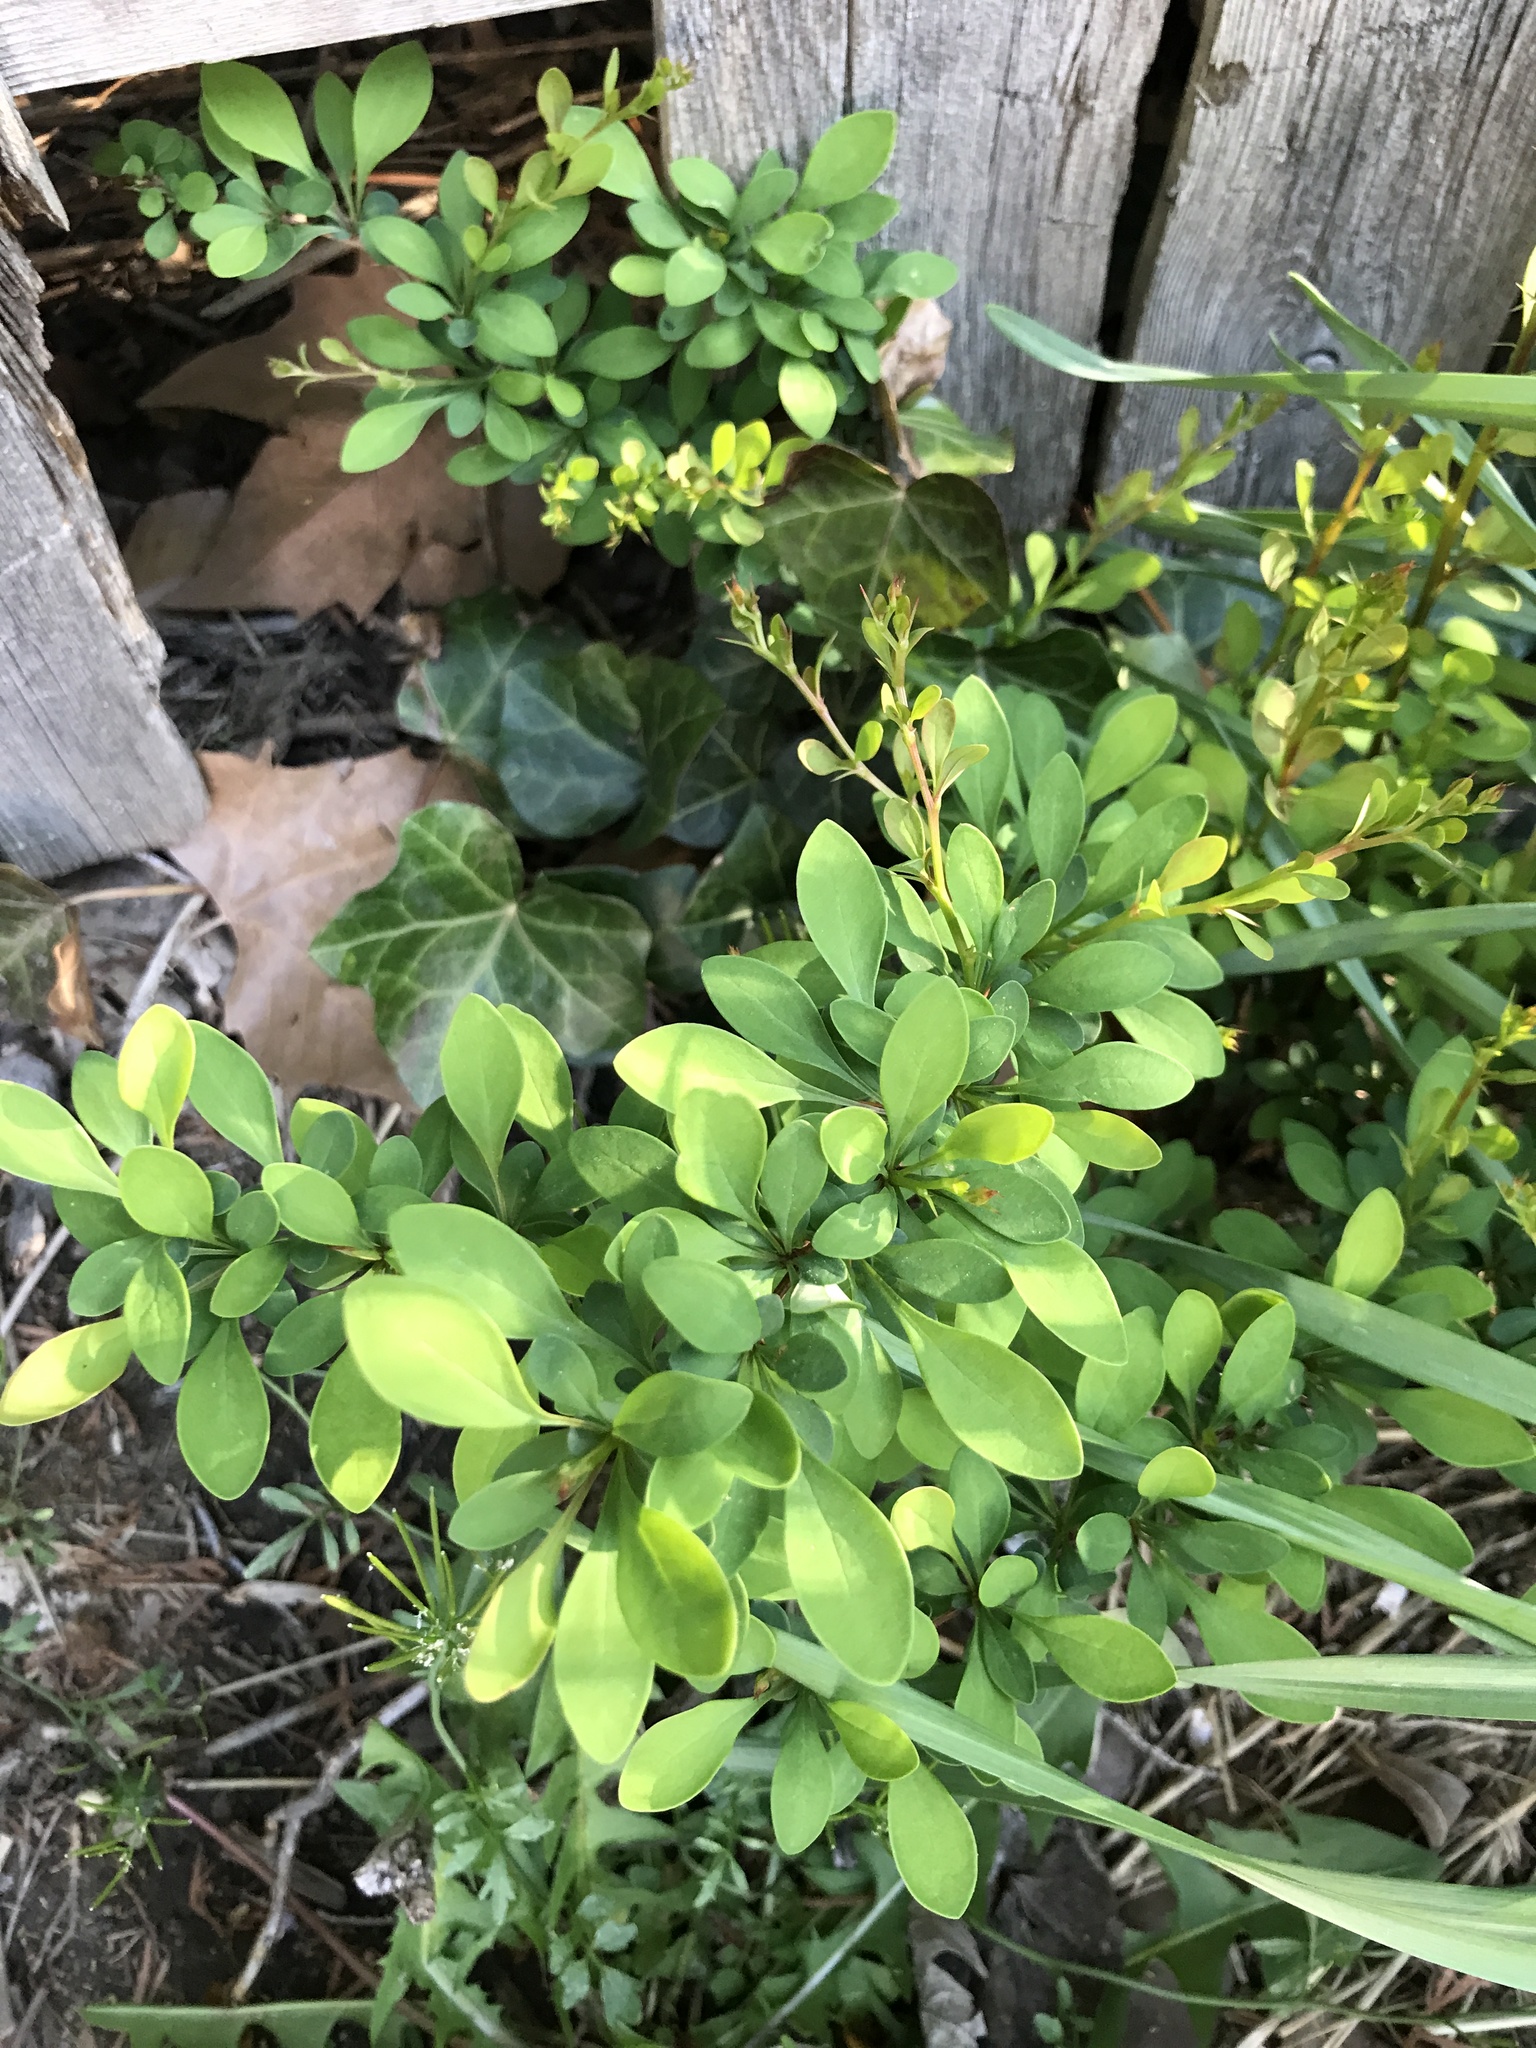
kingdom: Plantae
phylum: Tracheophyta
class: Magnoliopsida
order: Ranunculales
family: Berberidaceae
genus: Berberis
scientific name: Berberis thunbergii
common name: Japanese barberry
